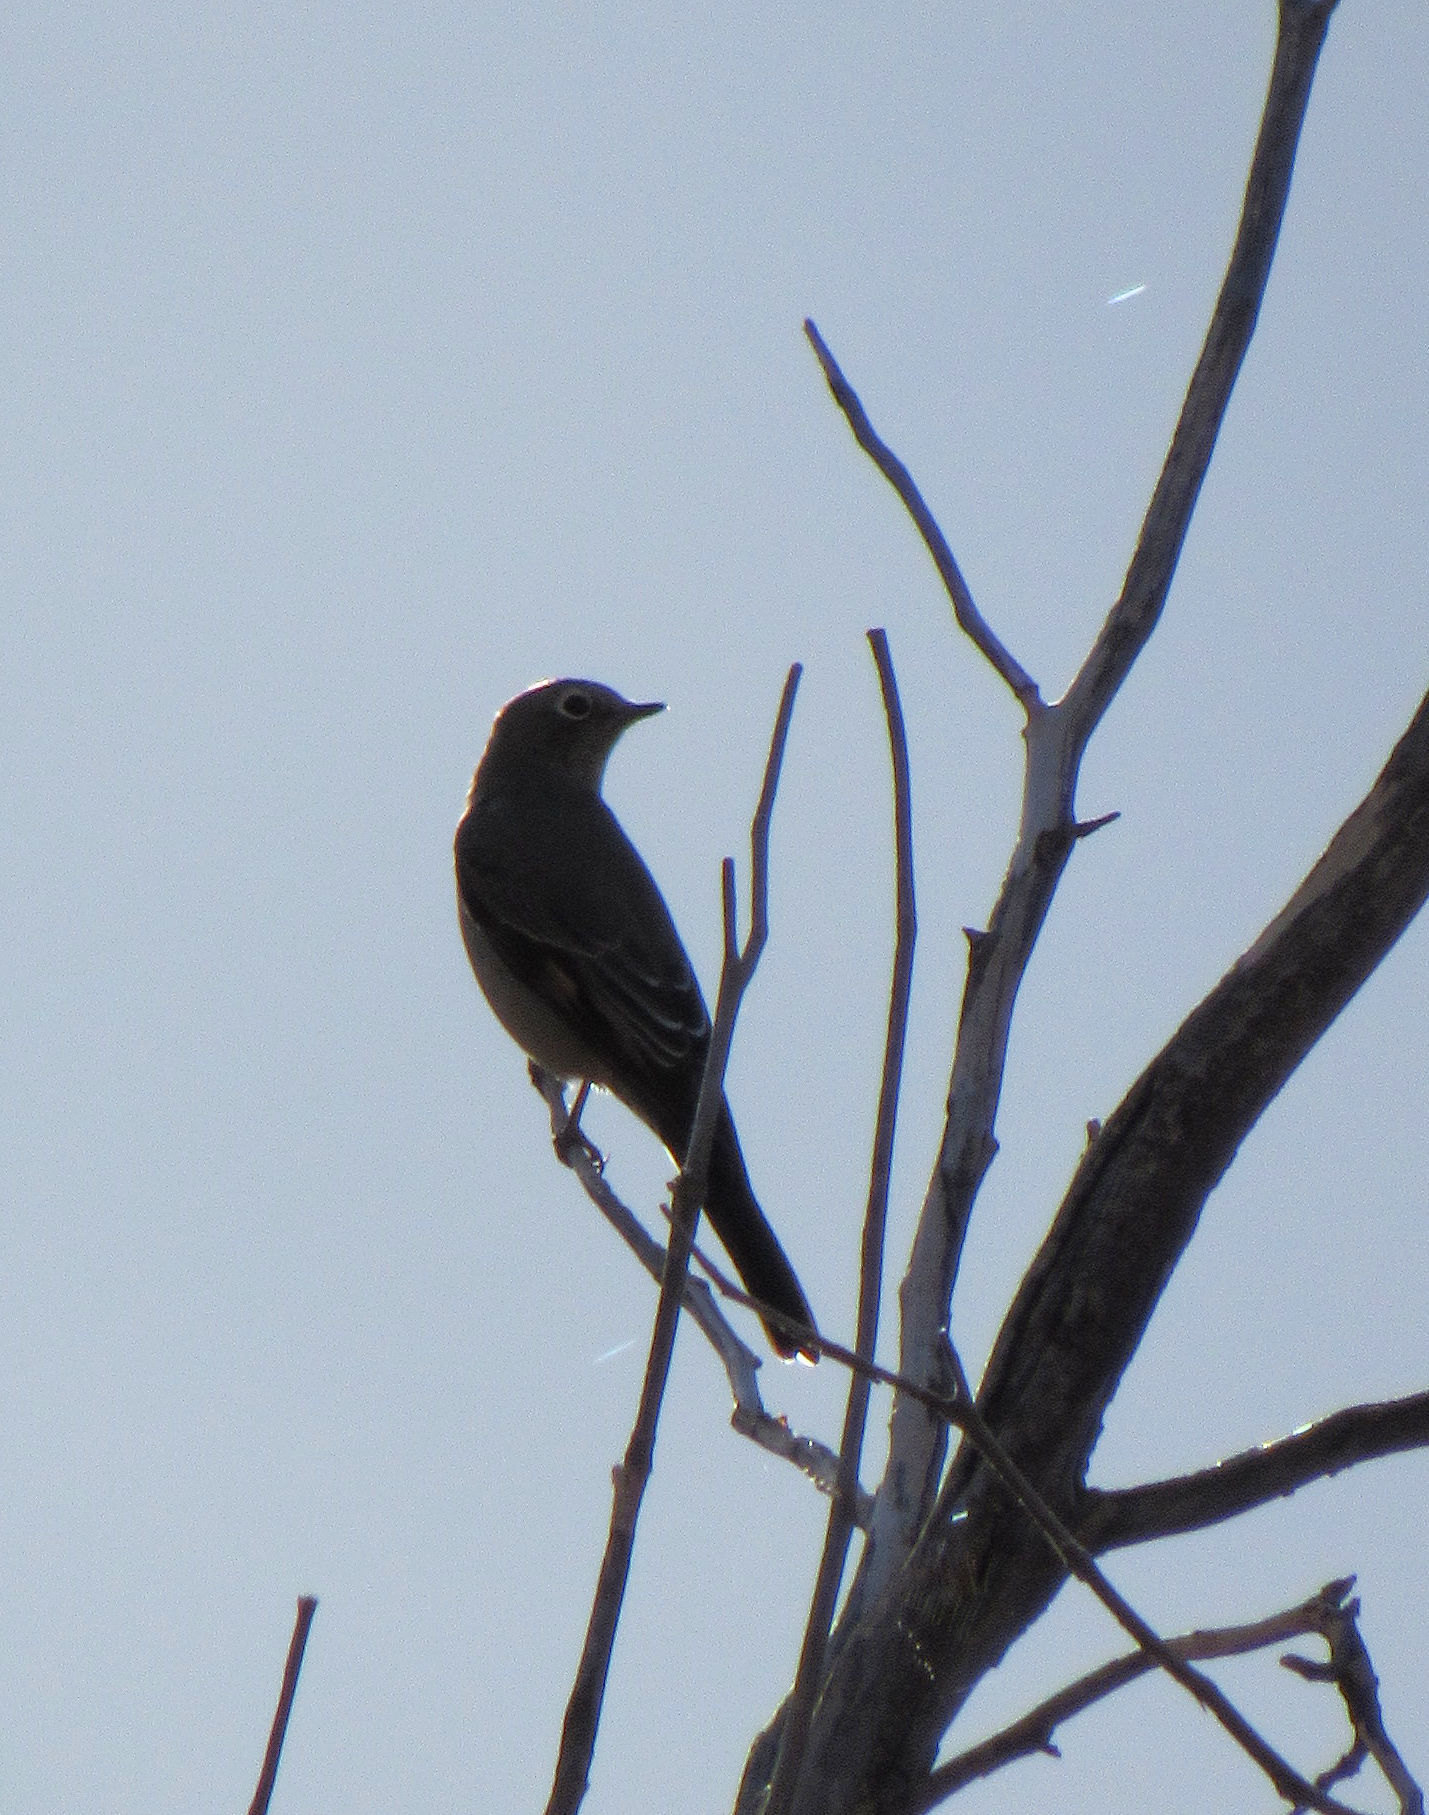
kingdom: Animalia
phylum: Chordata
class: Aves
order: Passeriformes
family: Turdidae
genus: Myadestes
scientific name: Myadestes townsendi
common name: Townsend's solitaire
